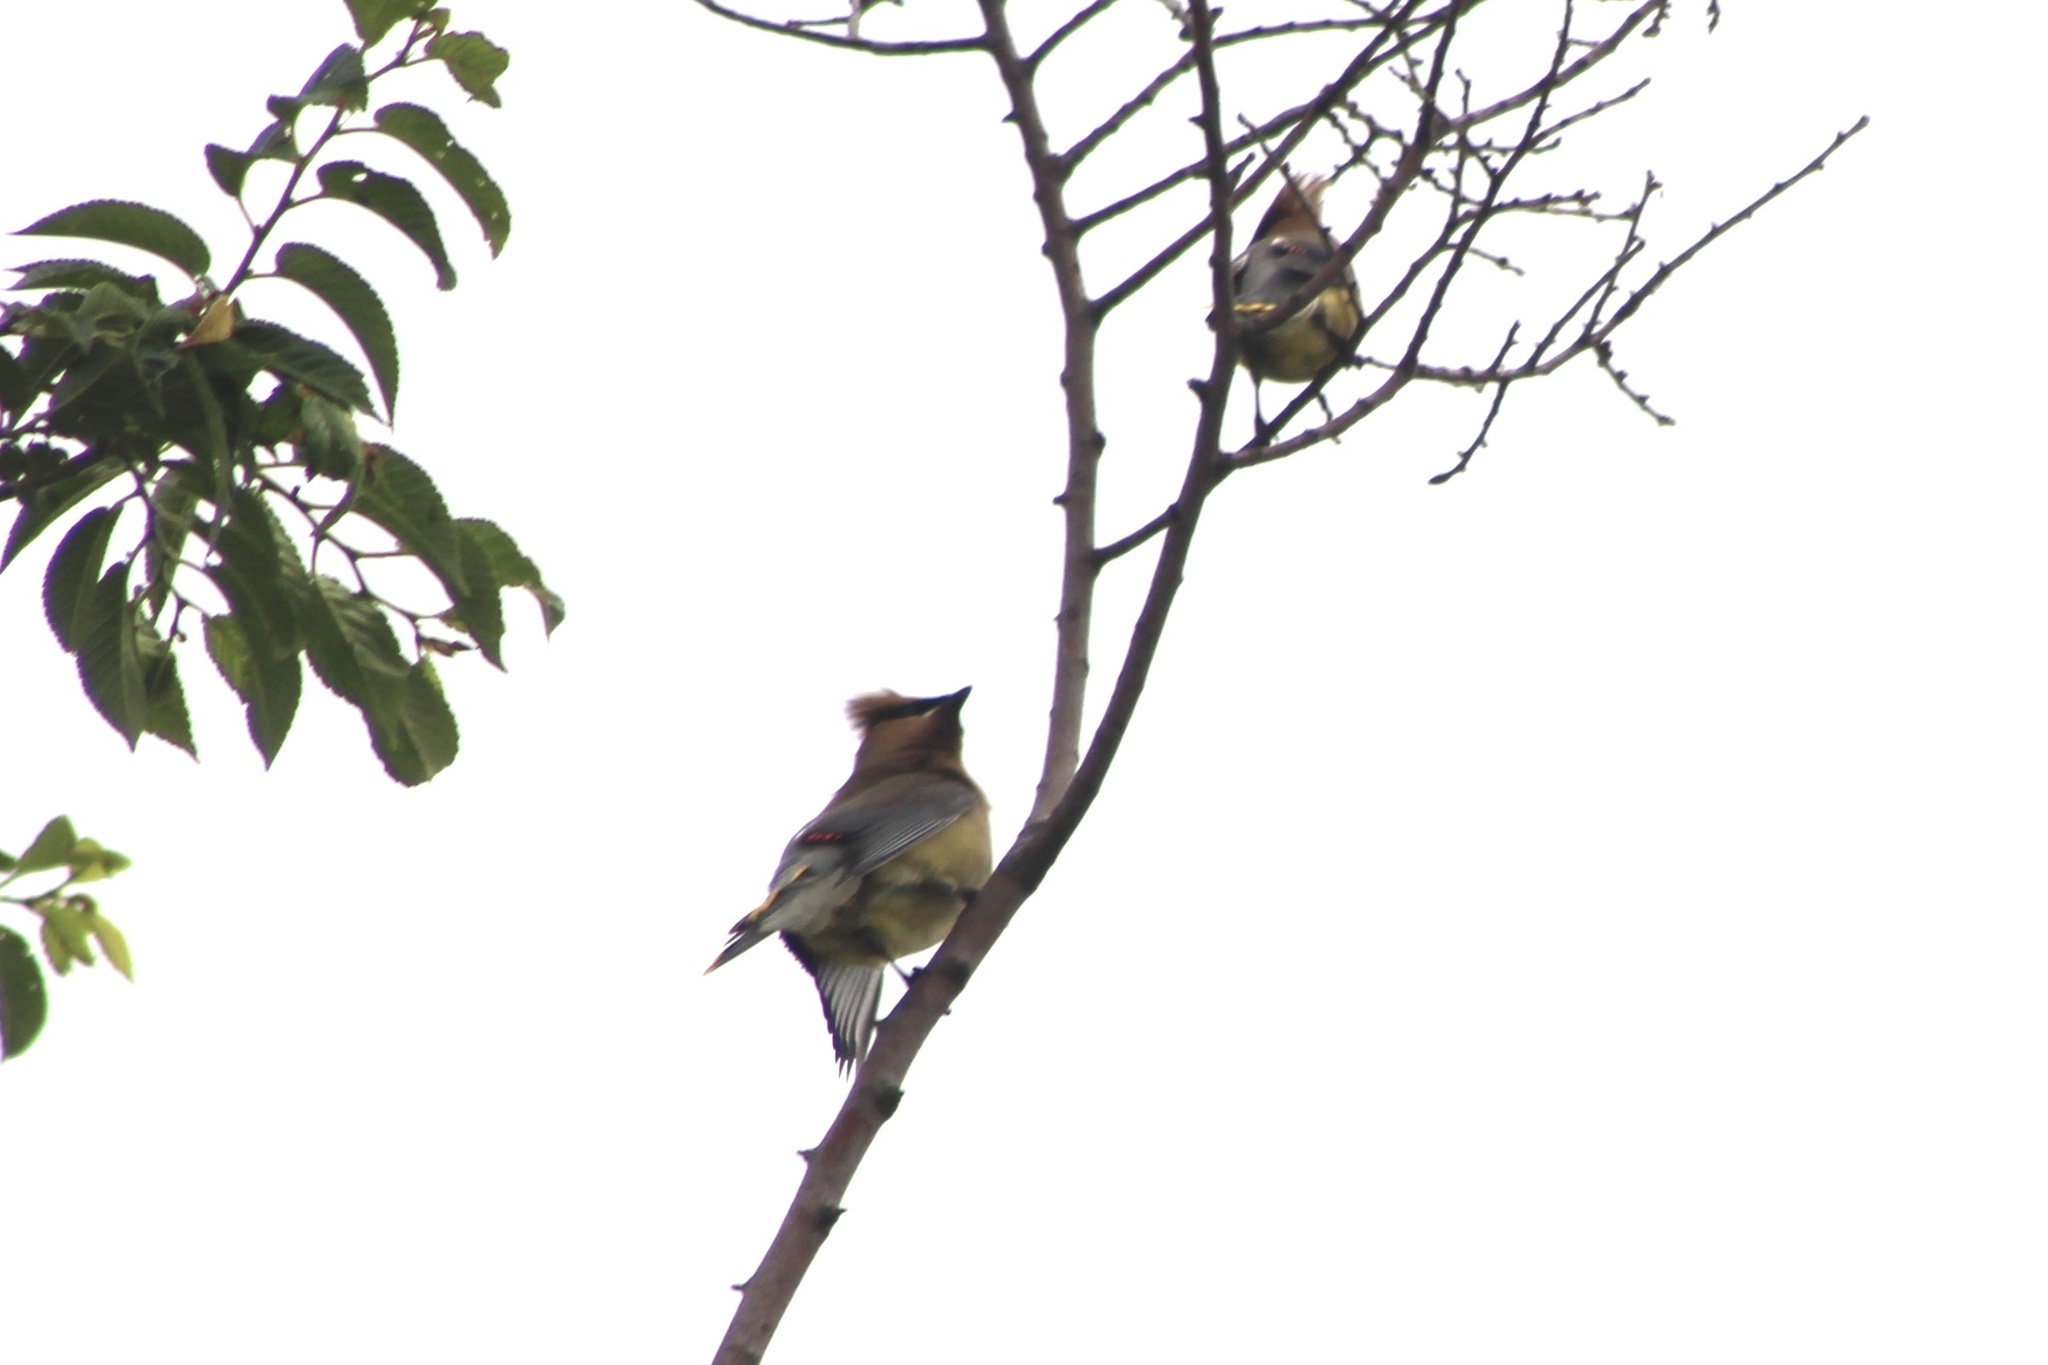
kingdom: Animalia
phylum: Chordata
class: Aves
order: Passeriformes
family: Bombycillidae
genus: Bombycilla
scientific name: Bombycilla cedrorum
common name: Cedar waxwing
